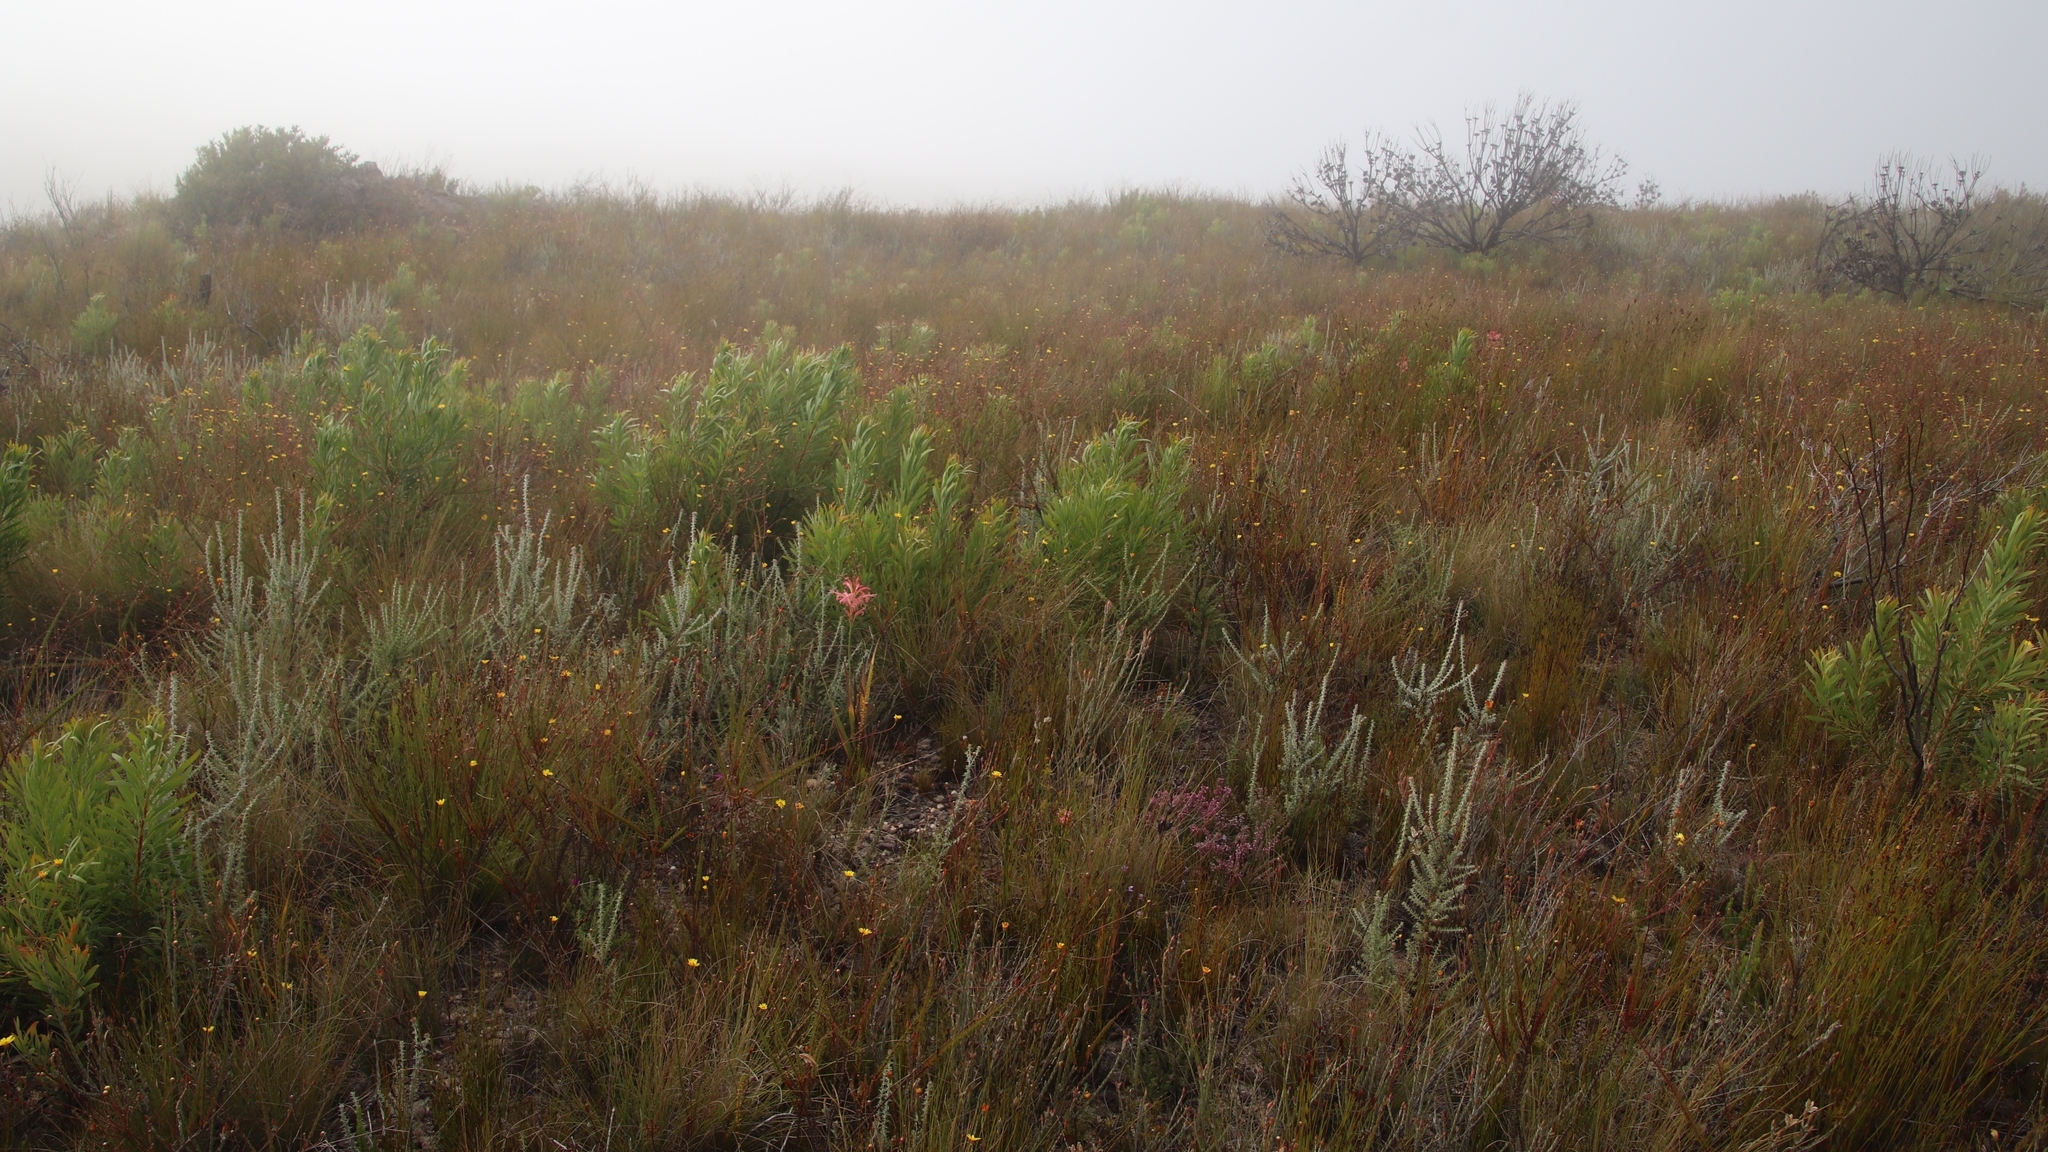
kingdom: Plantae
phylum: Tracheophyta
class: Magnoliopsida
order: Proteales
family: Proteaceae
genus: Protea
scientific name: Protea repens
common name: Sugarbush
